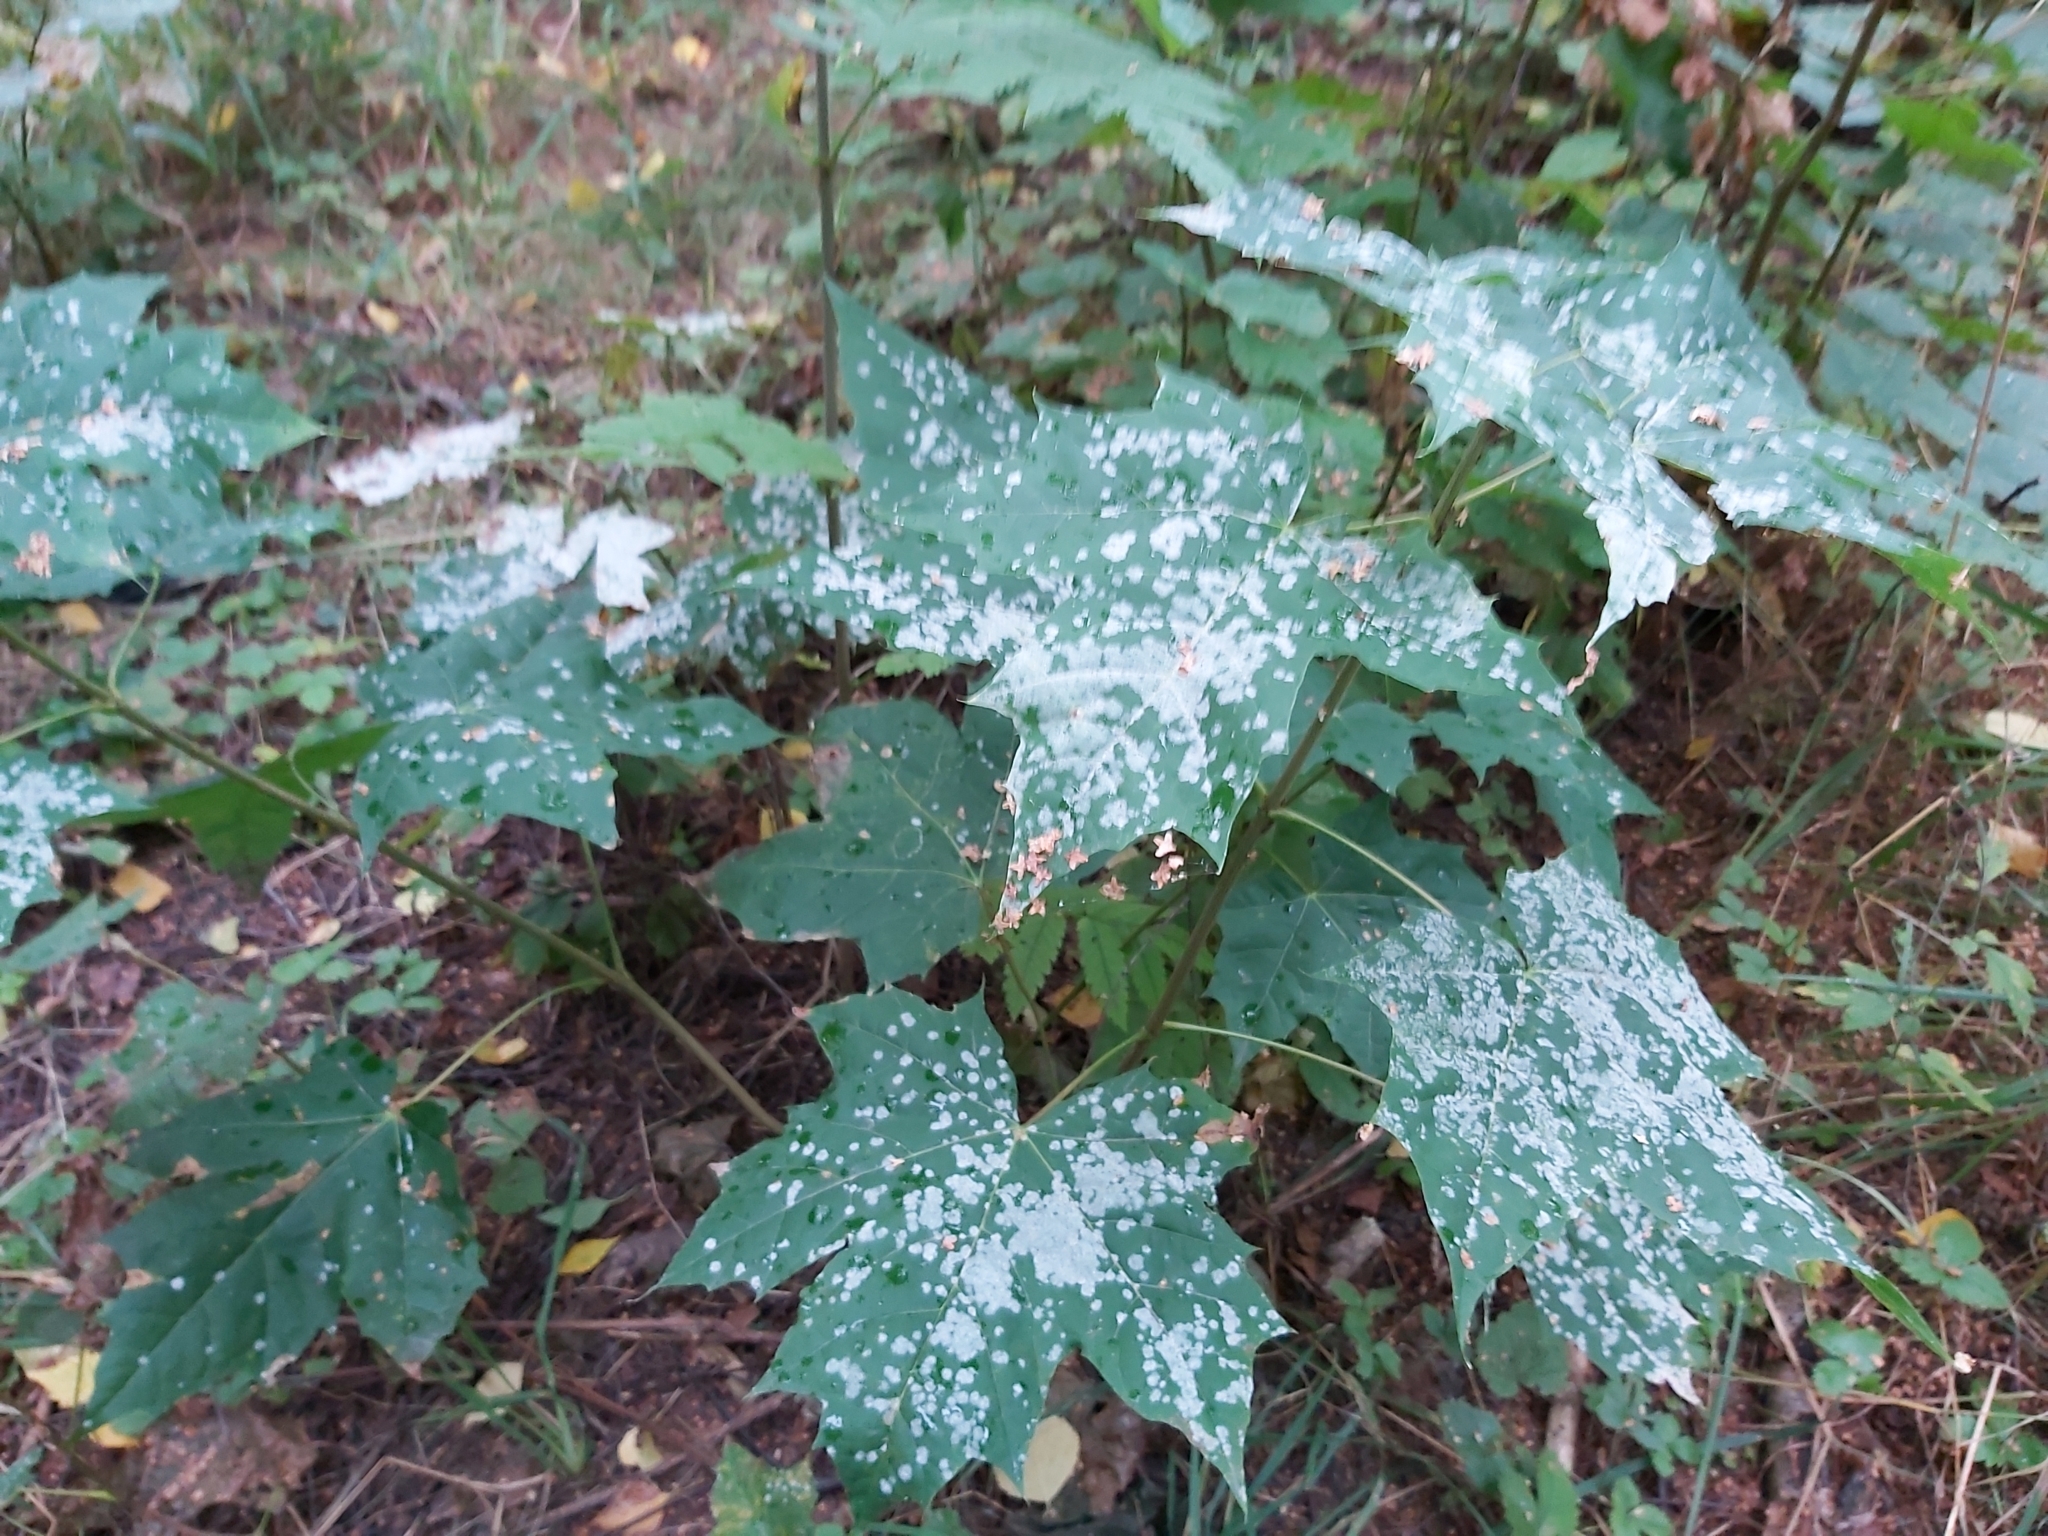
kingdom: Fungi
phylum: Ascomycota
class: Leotiomycetes
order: Helotiales
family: Erysiphaceae
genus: Sawadaea
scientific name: Sawadaea tulasnei
